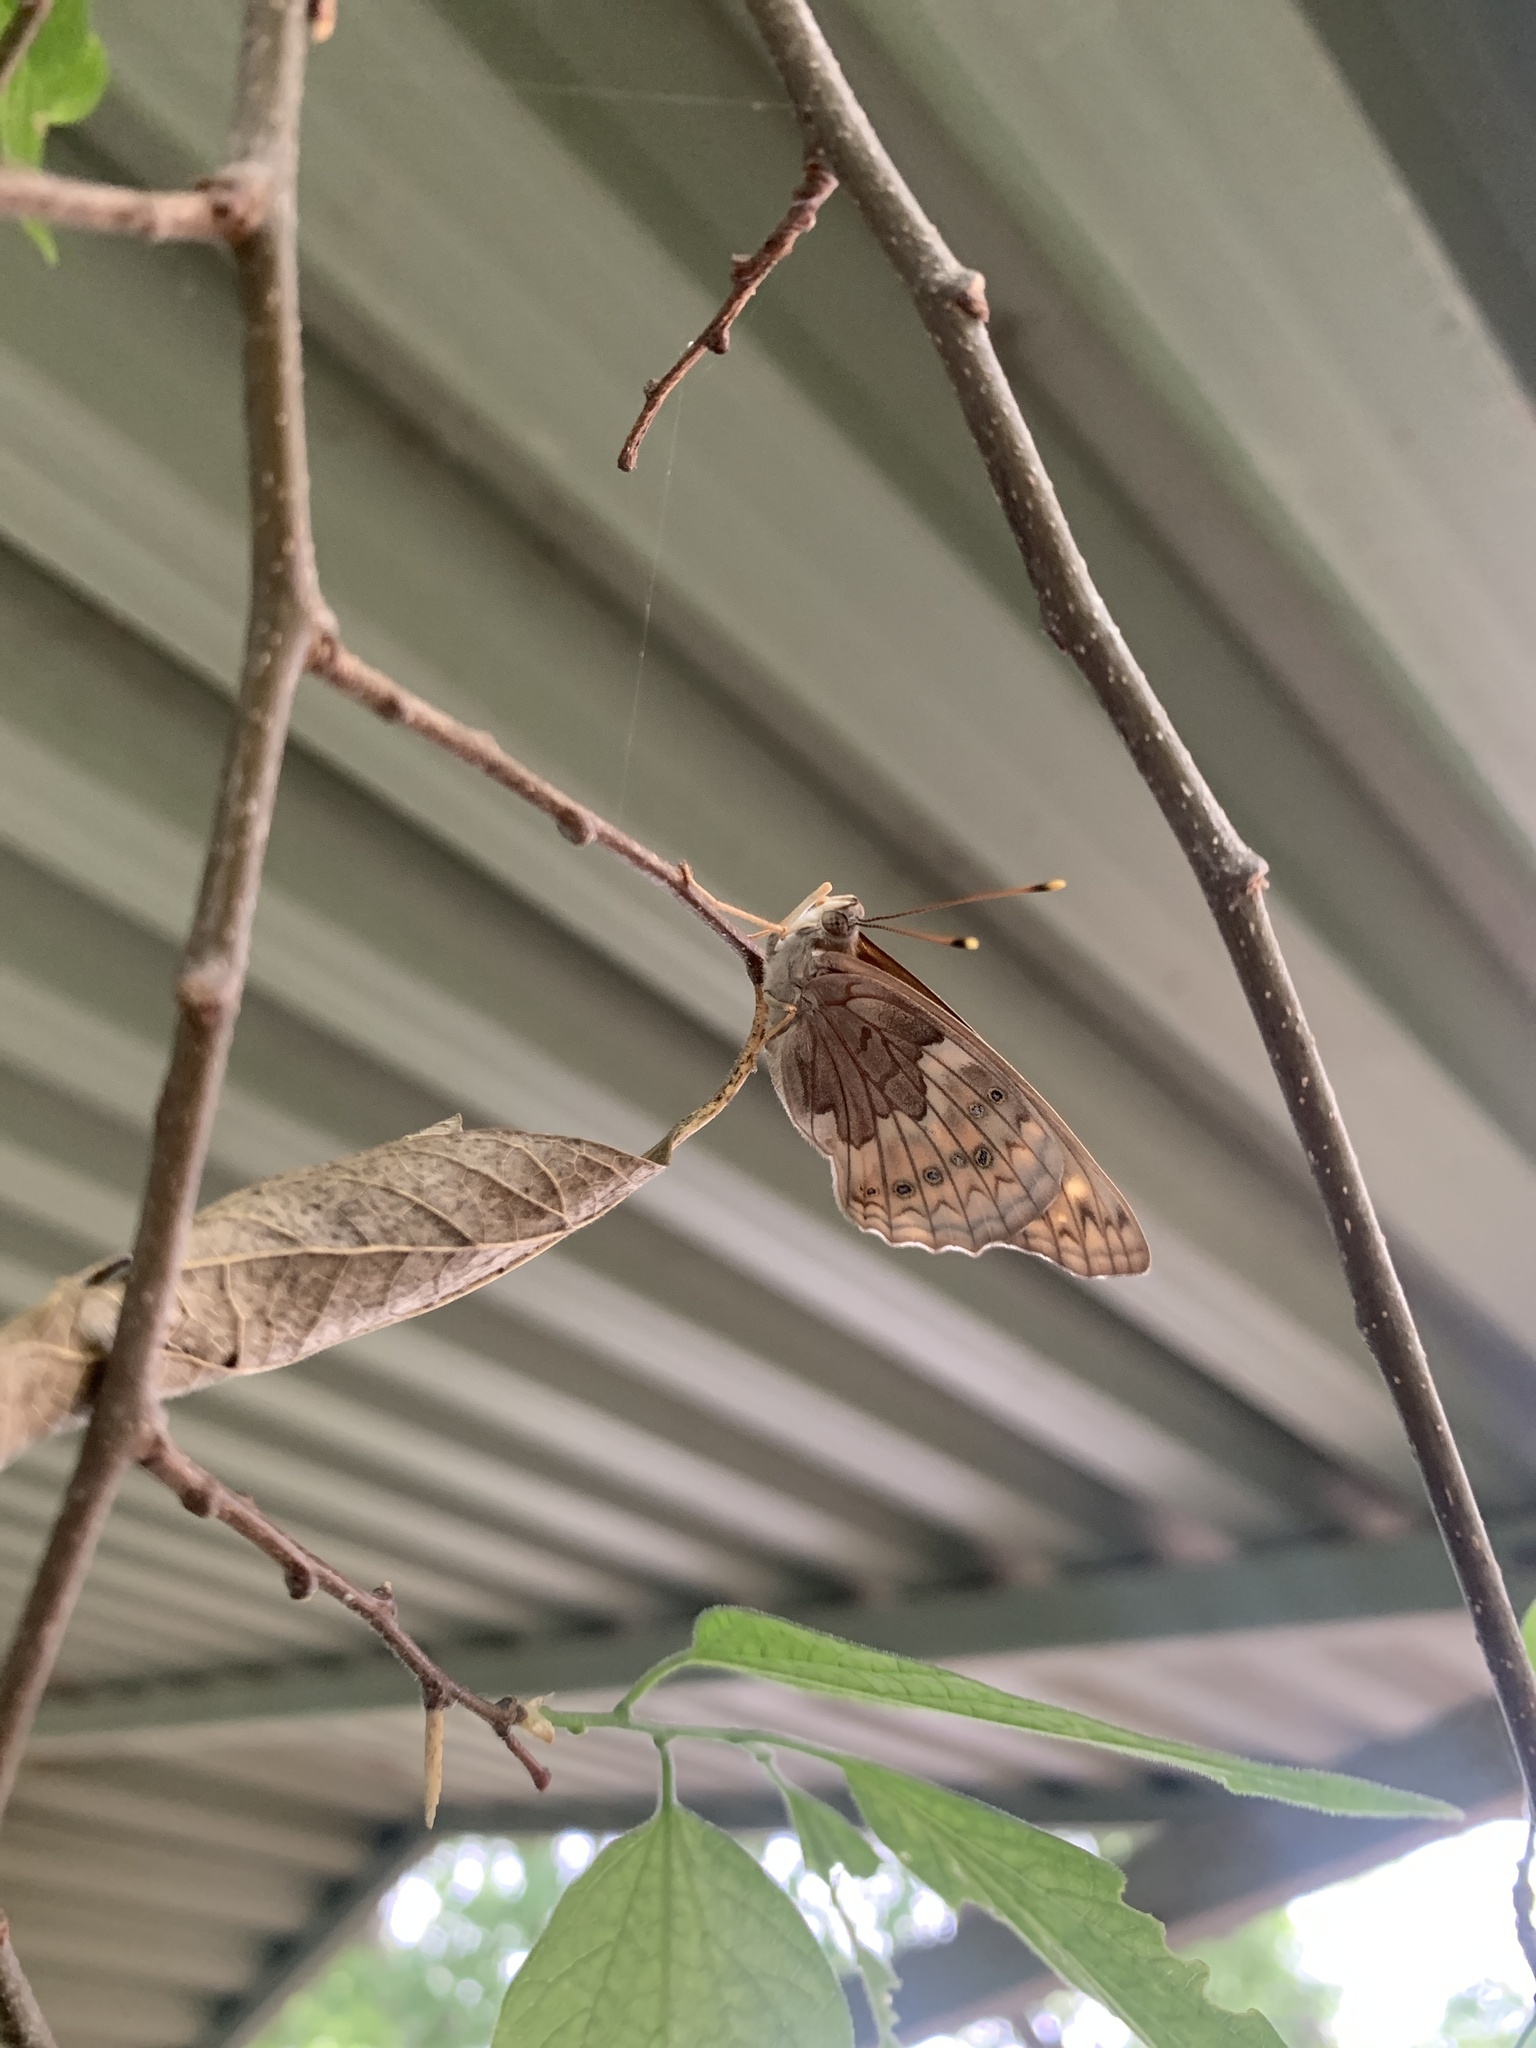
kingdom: Animalia
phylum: Arthropoda
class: Insecta
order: Lepidoptera
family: Nymphalidae
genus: Asterocampa
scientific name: Asterocampa clyton
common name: Tawny emperor
